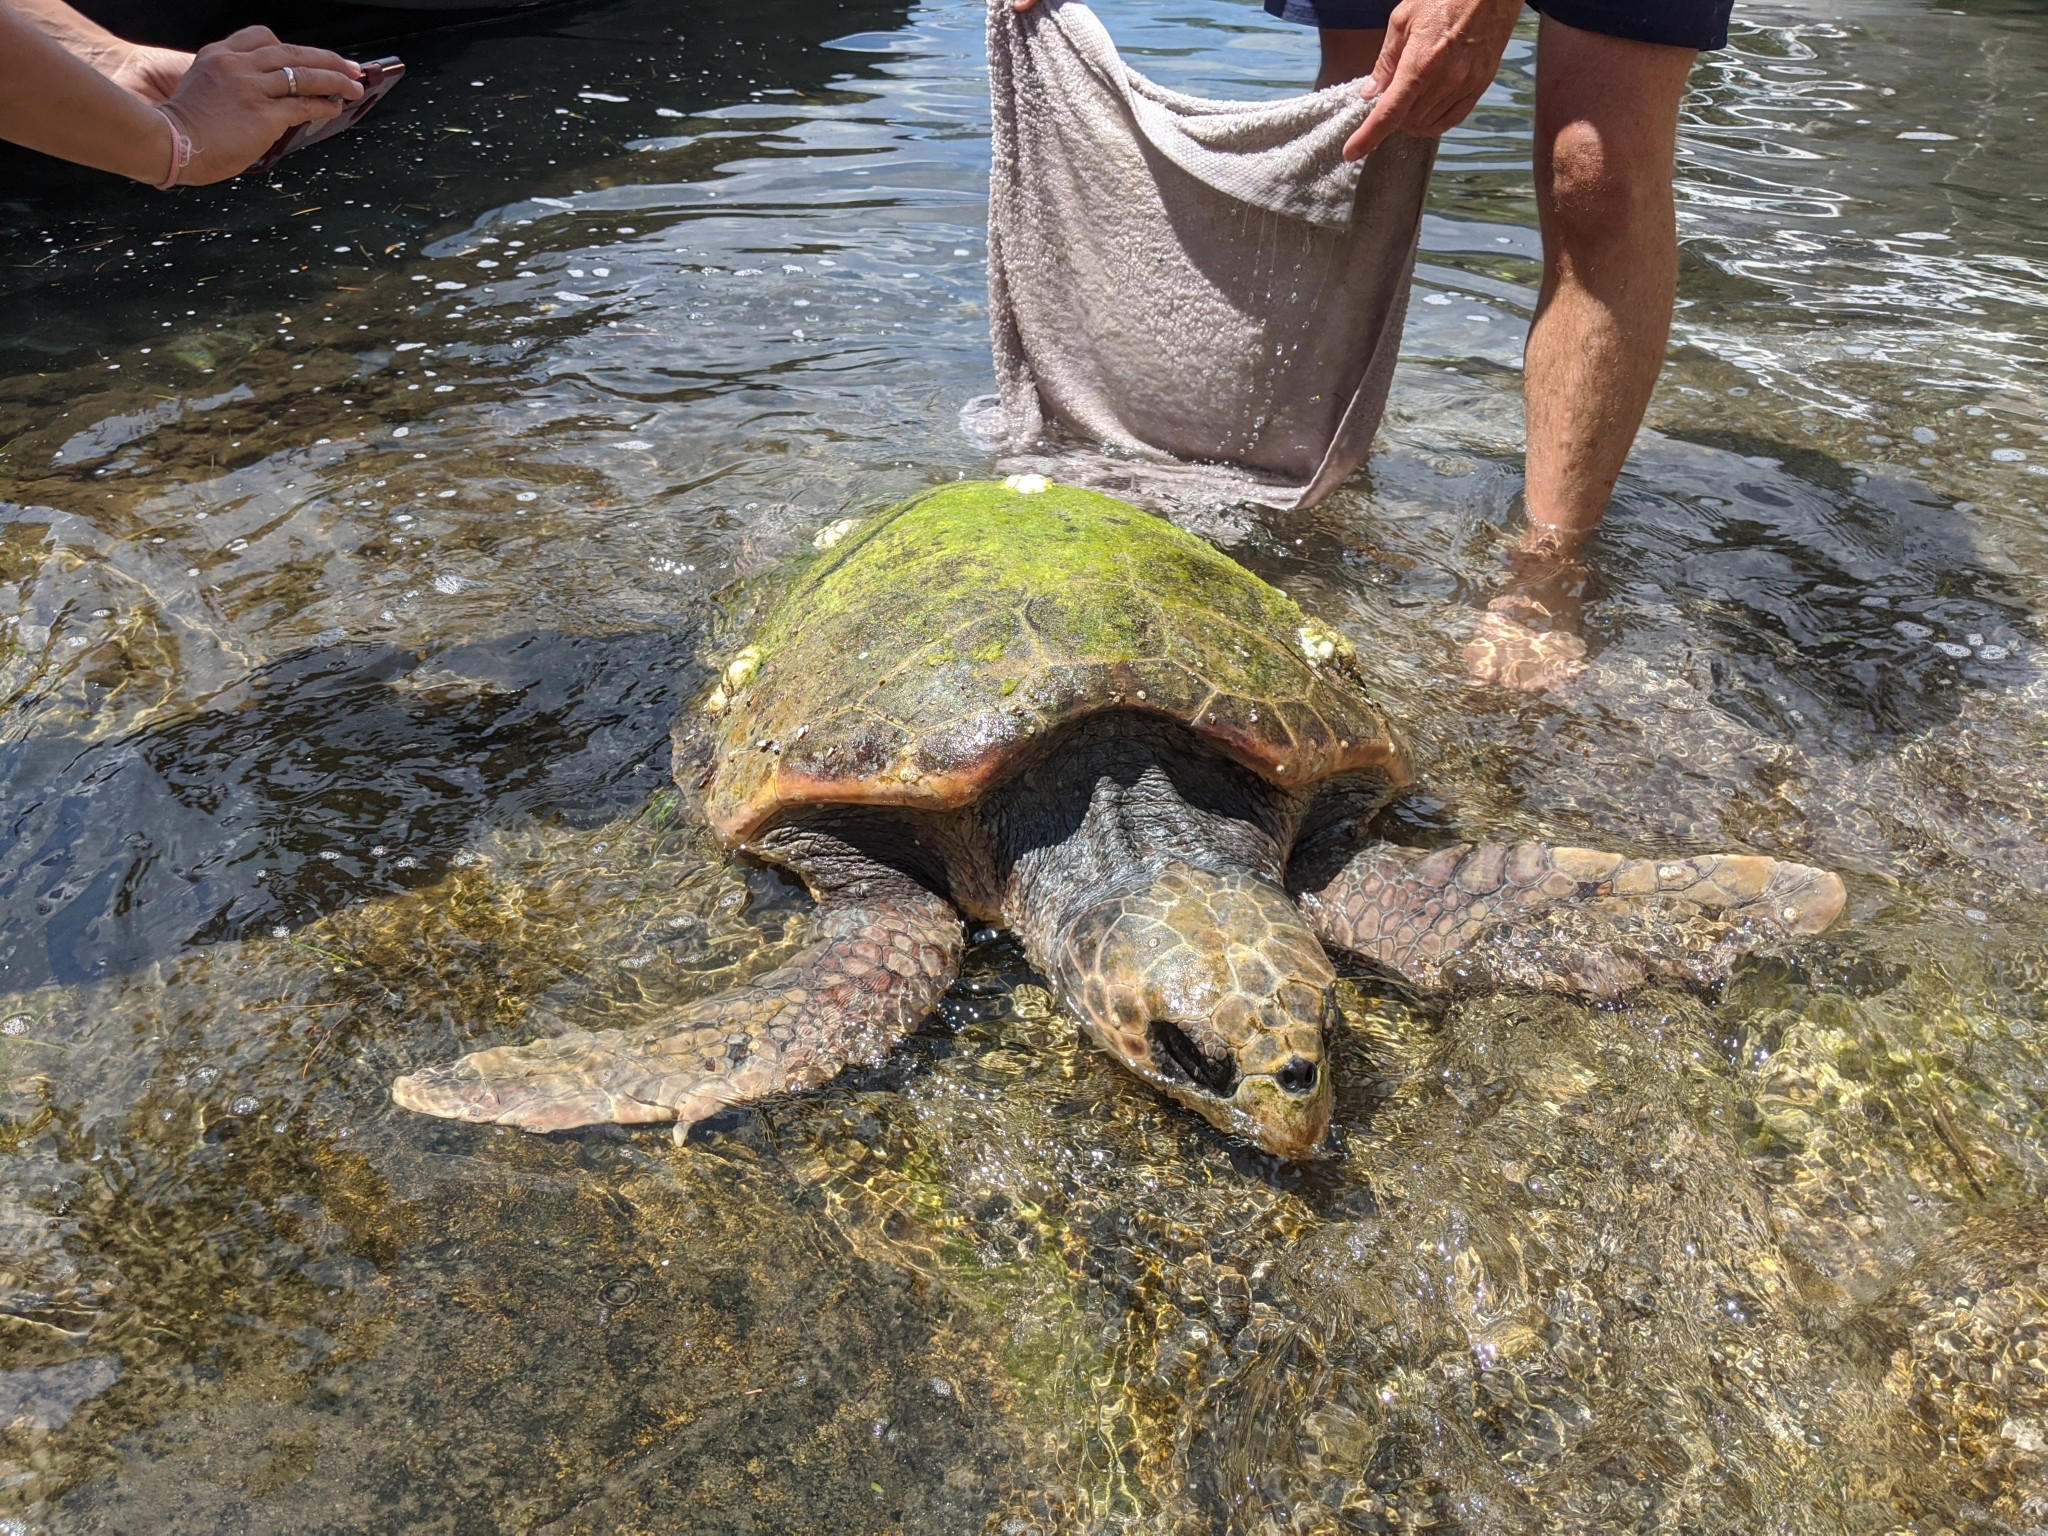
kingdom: Animalia
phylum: Chordata
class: Testudines
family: Cheloniidae
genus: Caretta
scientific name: Caretta caretta
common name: Loggerhead sea turtle
